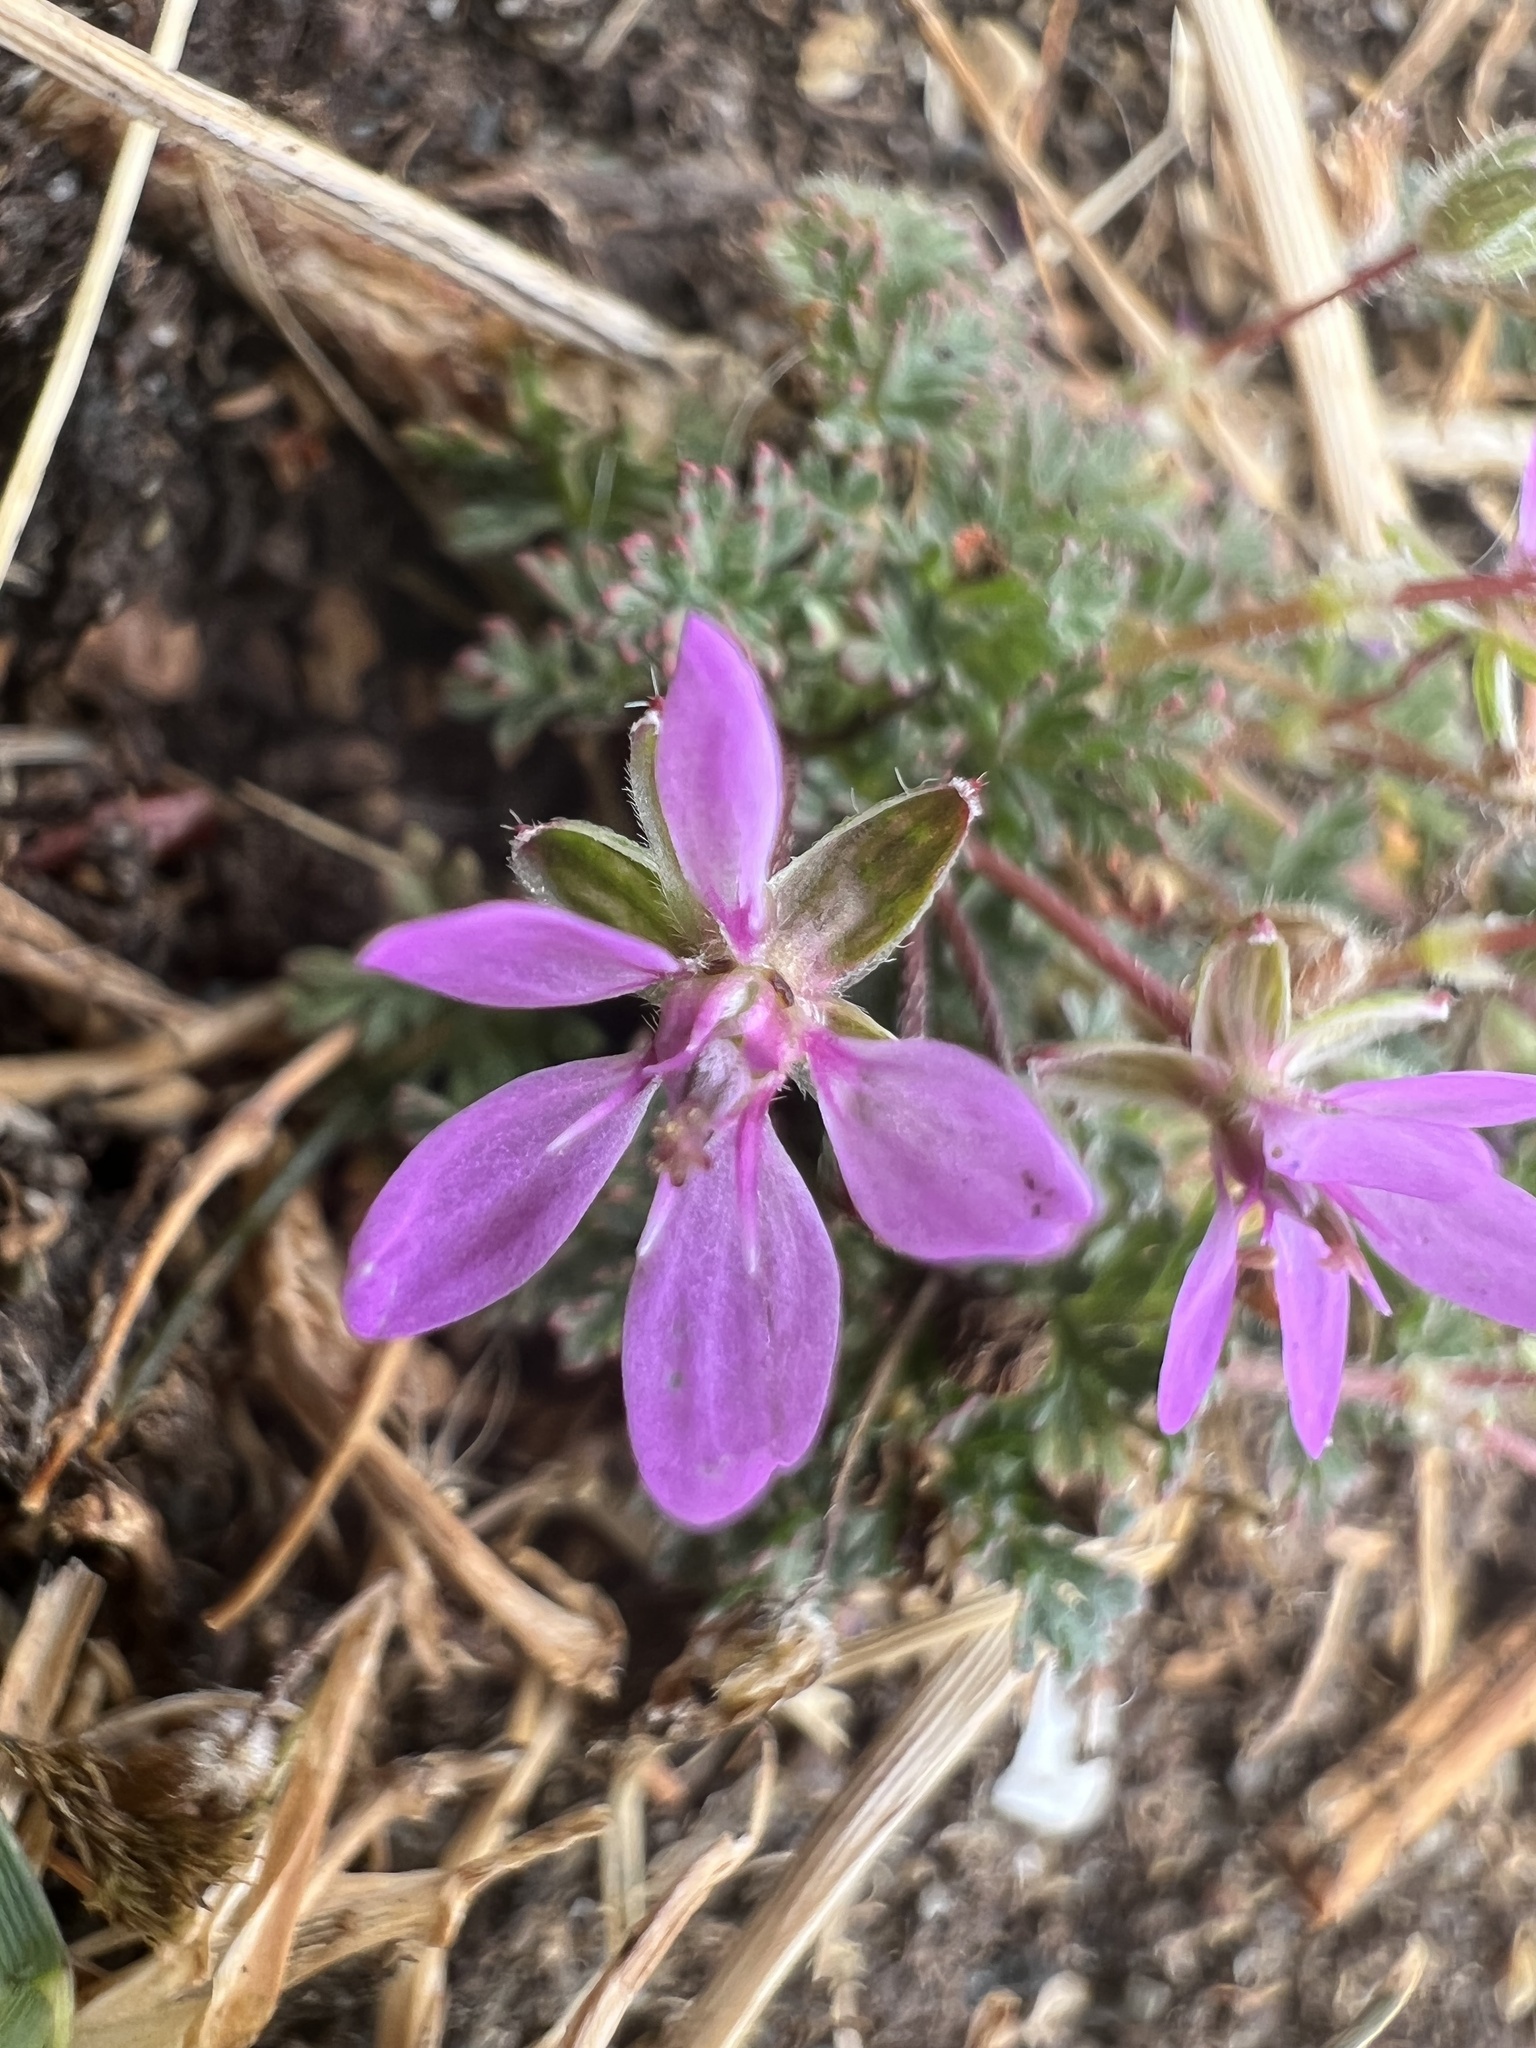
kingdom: Plantae
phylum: Tracheophyta
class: Magnoliopsida
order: Geraniales
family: Geraniaceae
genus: Erodium
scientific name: Erodium cicutarium
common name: Common stork's-bill
